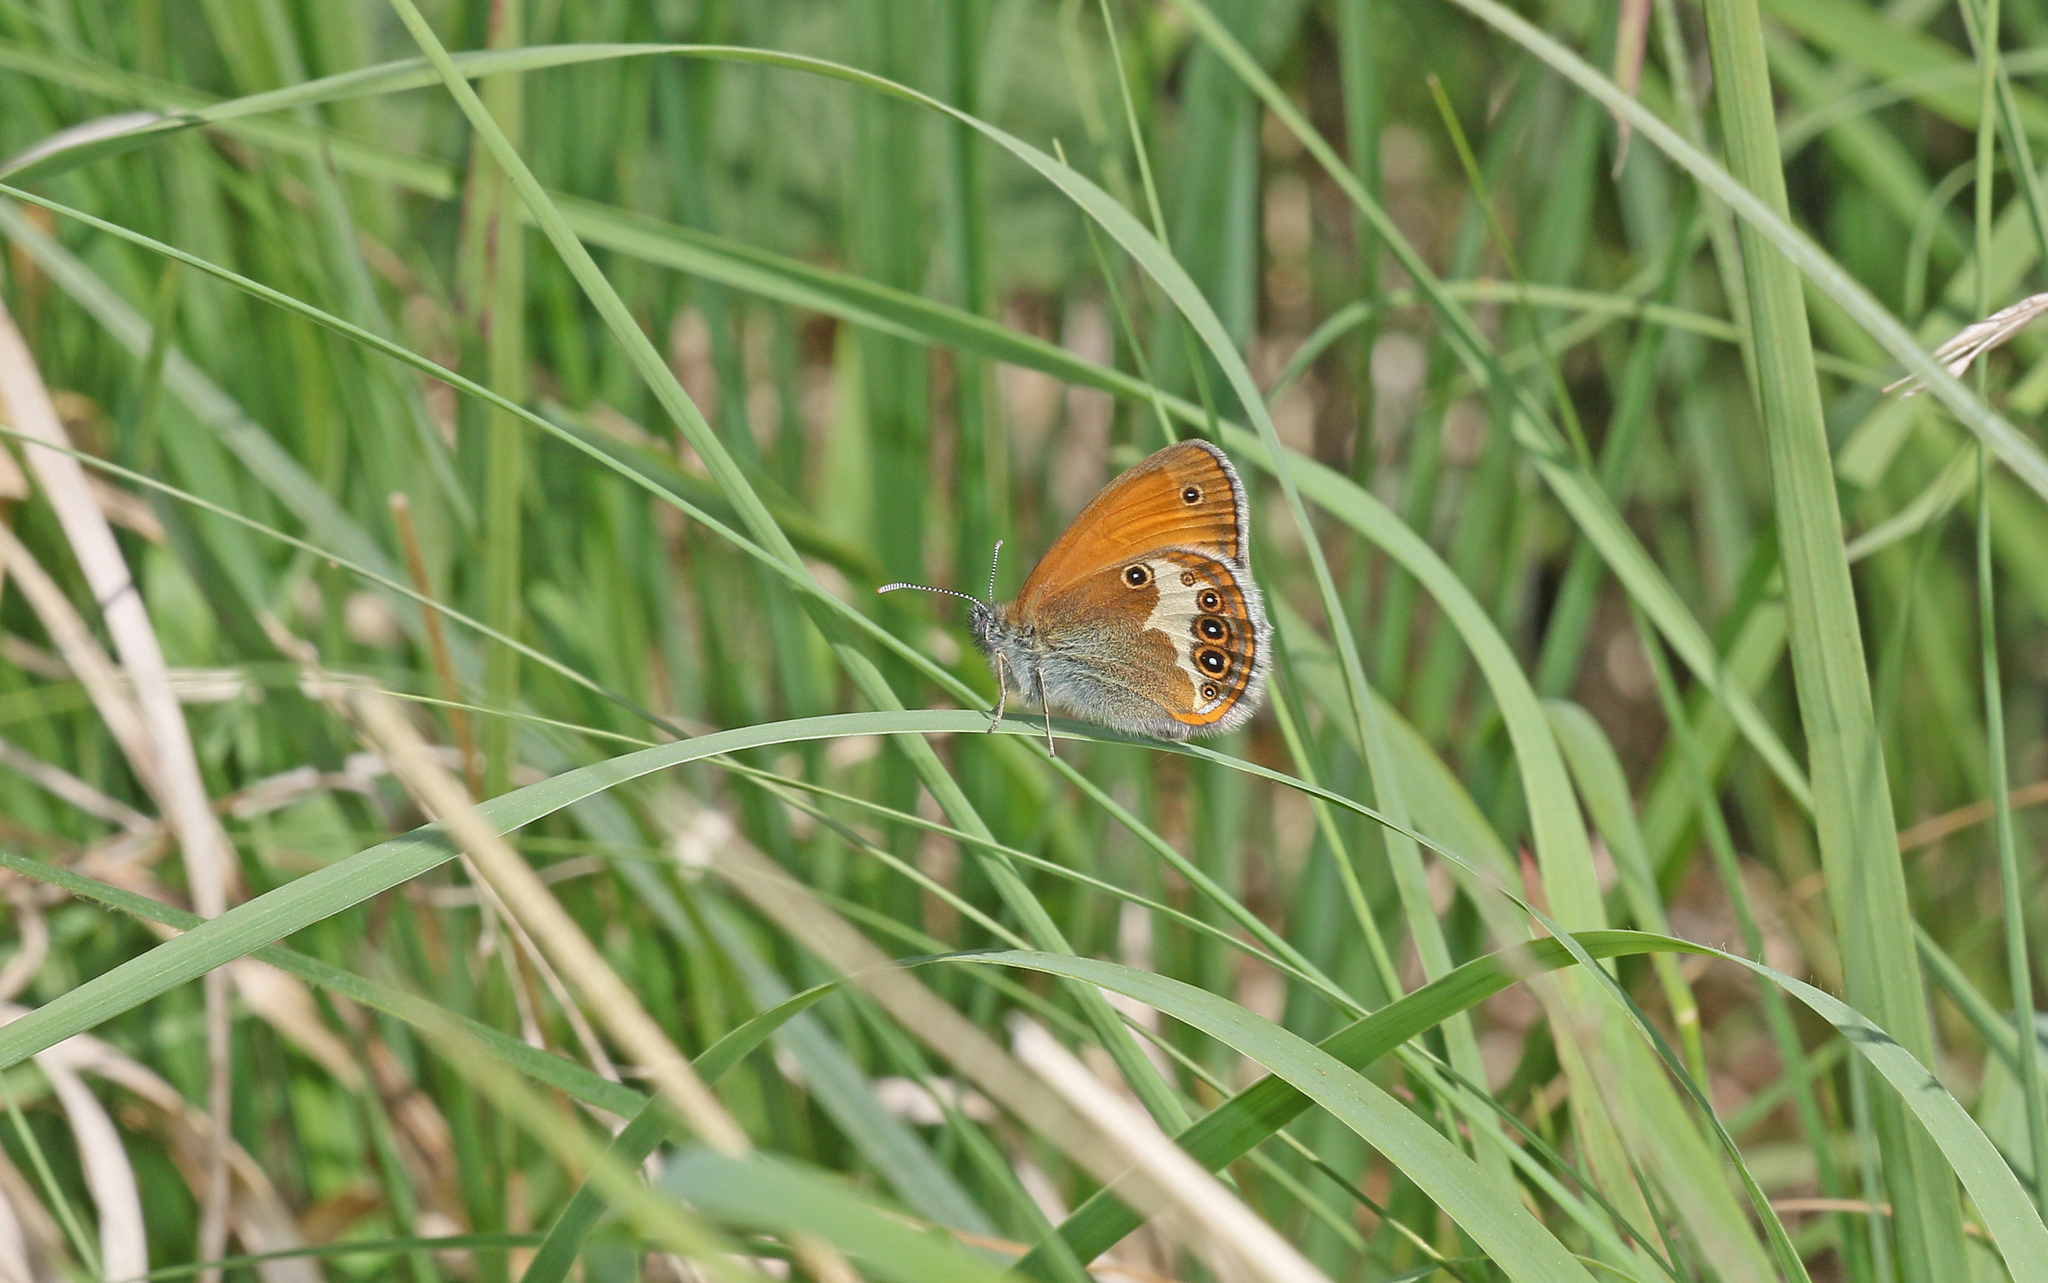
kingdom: Animalia
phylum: Arthropoda
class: Insecta
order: Lepidoptera
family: Nymphalidae
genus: Coenonympha
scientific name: Coenonympha arcania
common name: Pearly heath
